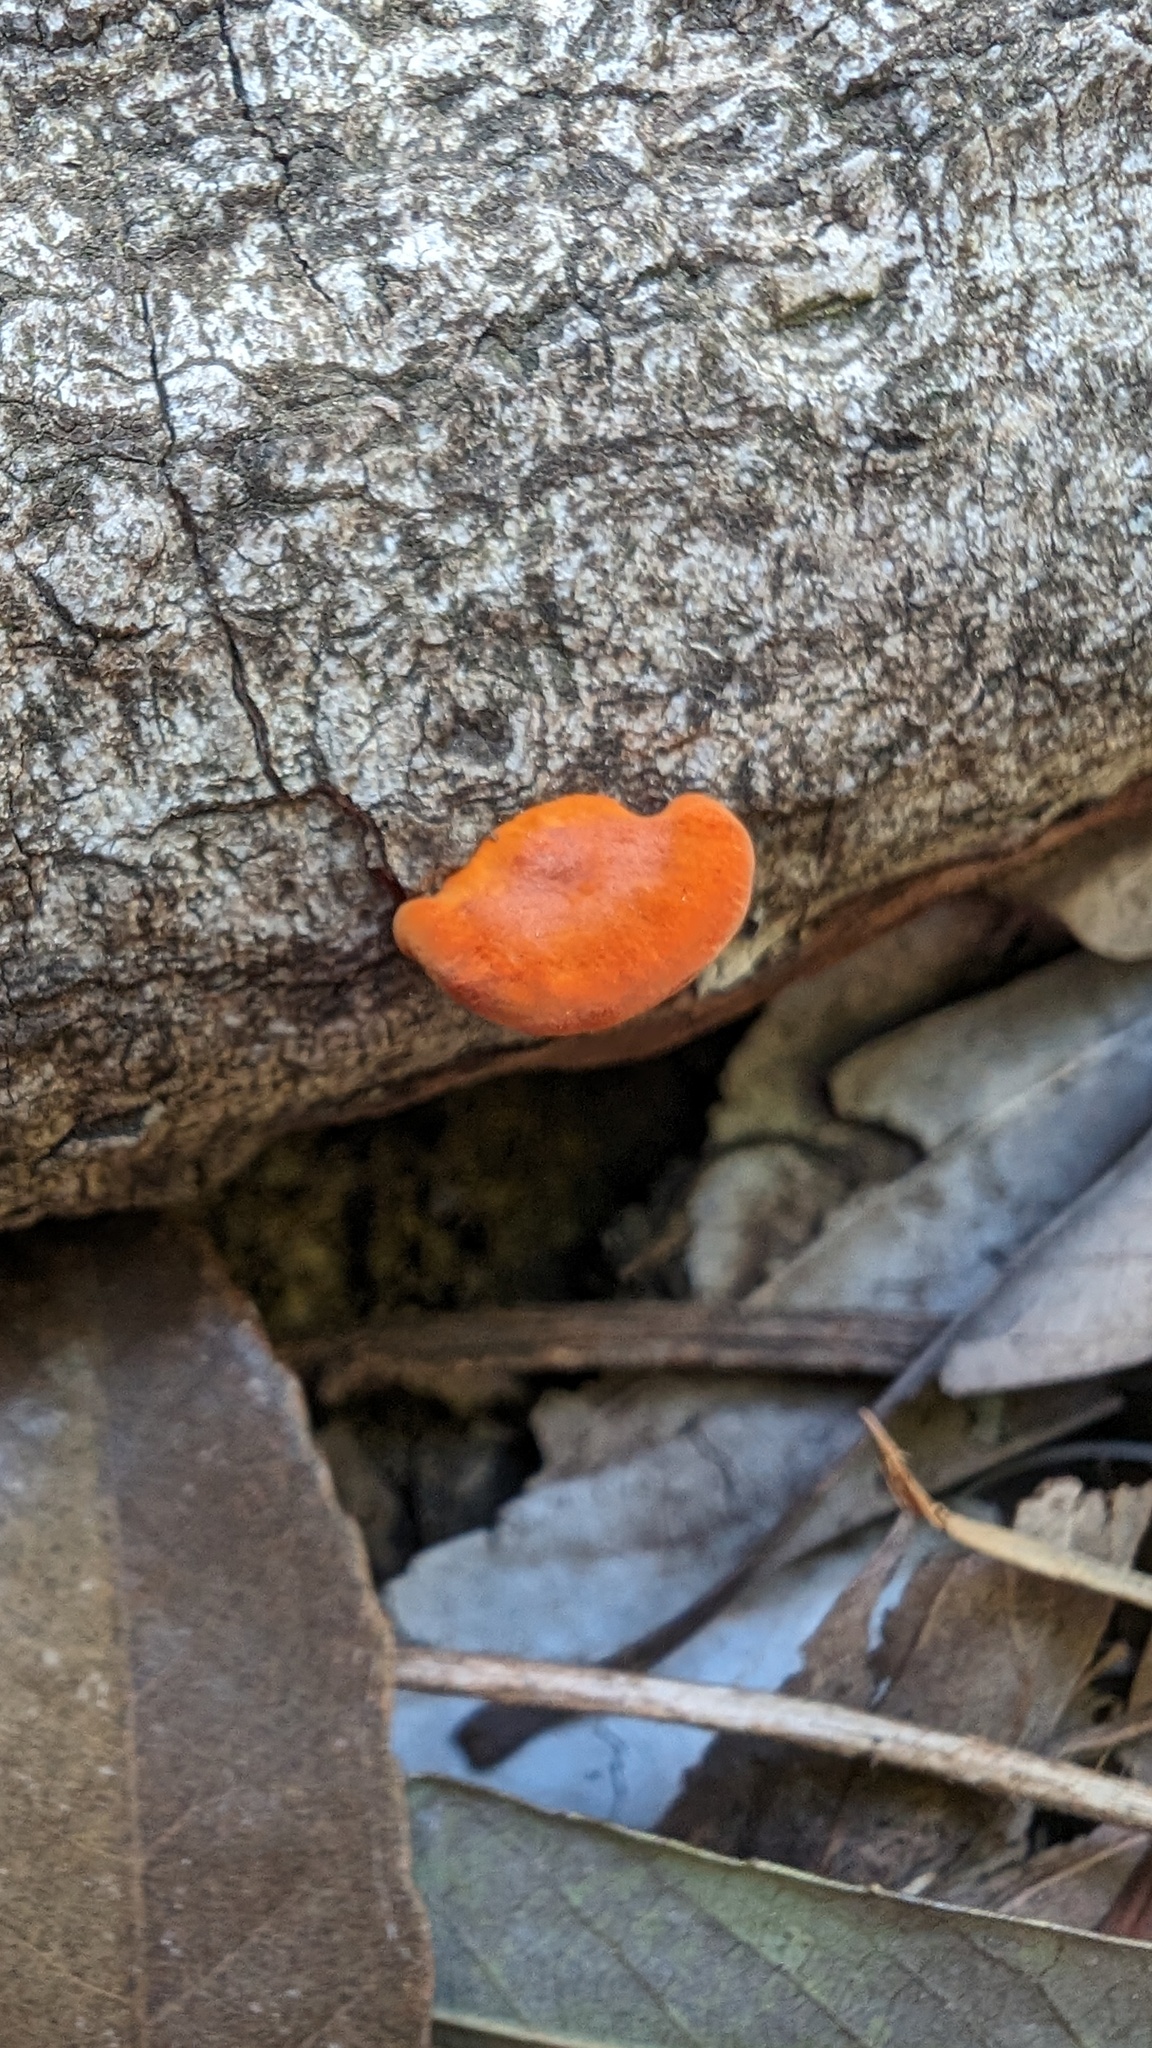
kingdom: Fungi
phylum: Basidiomycota
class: Agaricomycetes
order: Polyporales
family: Polyporaceae
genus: Trametes
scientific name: Trametes coccinea
